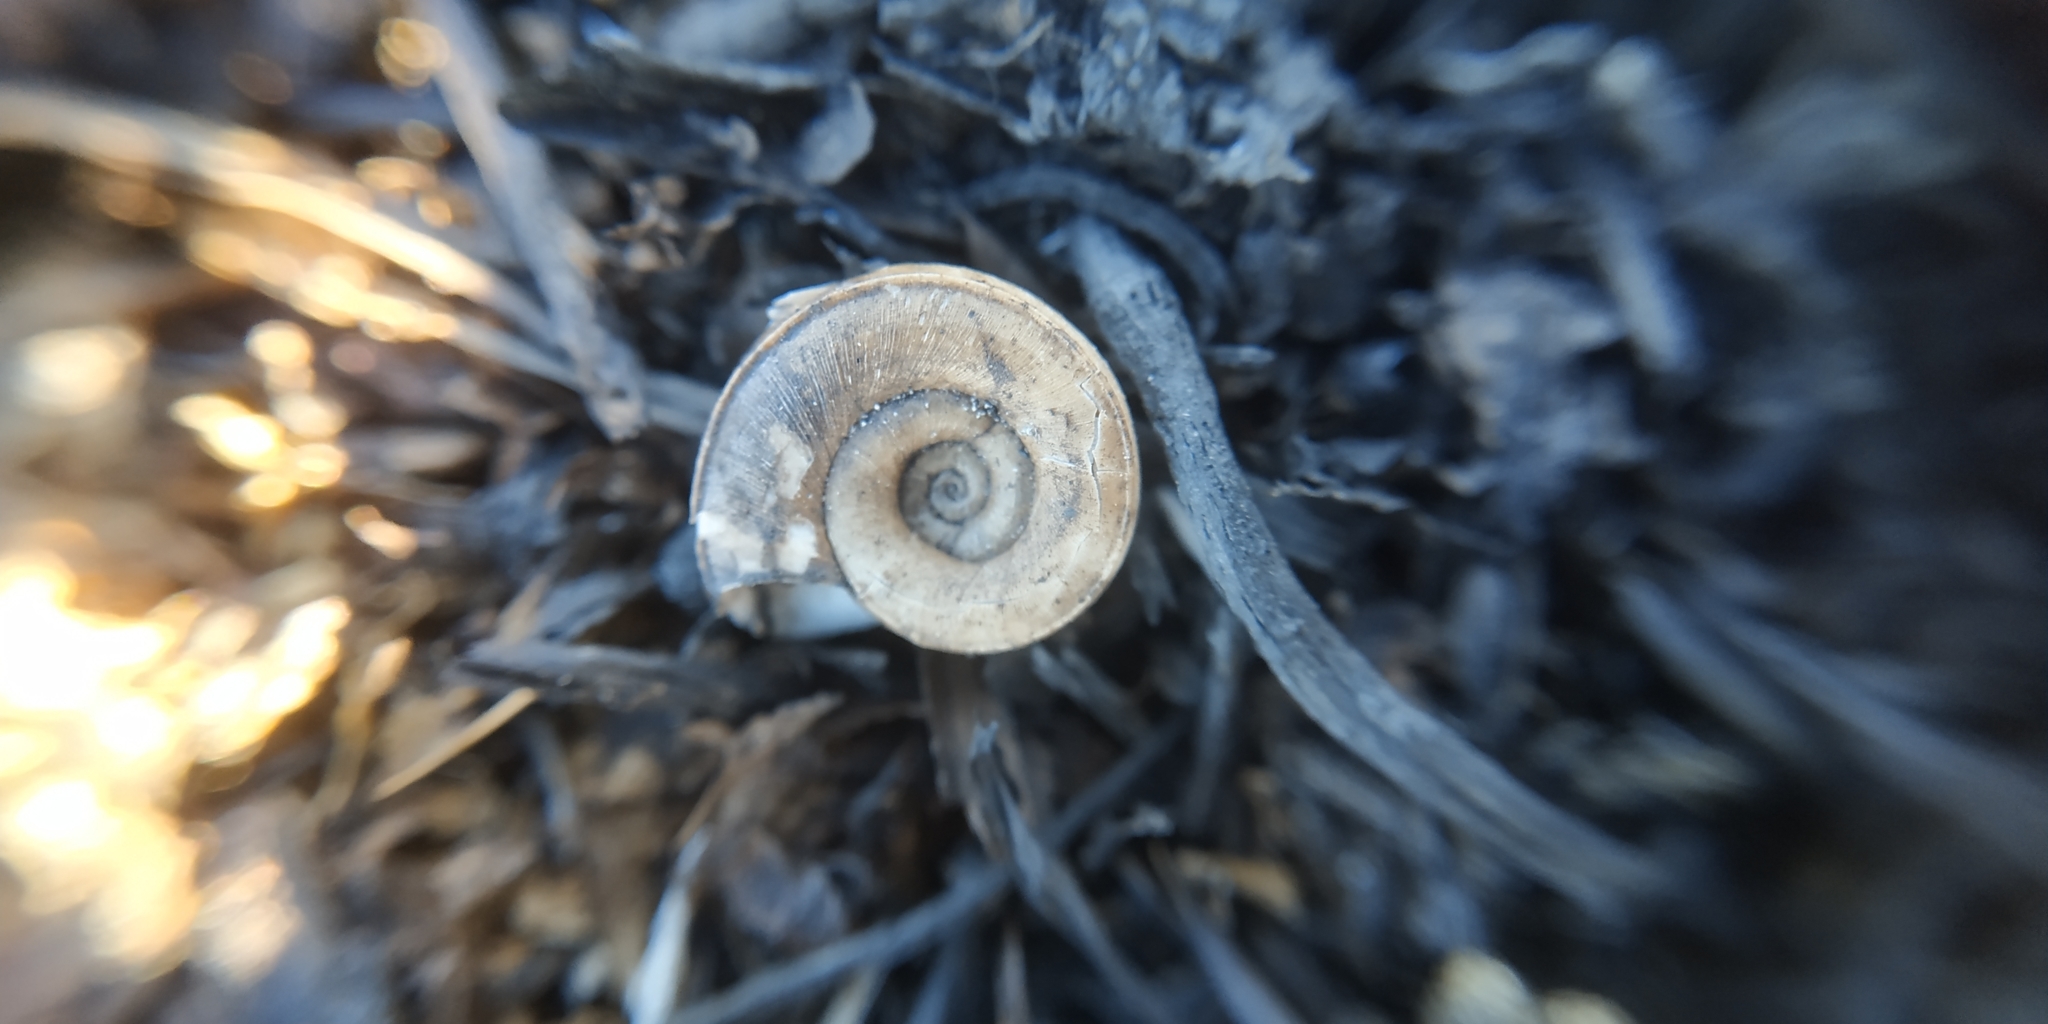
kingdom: Animalia
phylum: Mollusca
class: Gastropoda
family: Planorbidae
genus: Planorbis
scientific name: Planorbis planorbis
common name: Margined ramshorn
